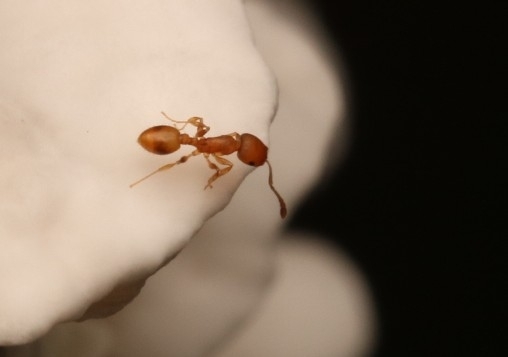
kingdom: Animalia
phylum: Arthropoda
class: Insecta
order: Hymenoptera
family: Formicidae
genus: Temnothorax
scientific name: Temnothorax curvispinosus
